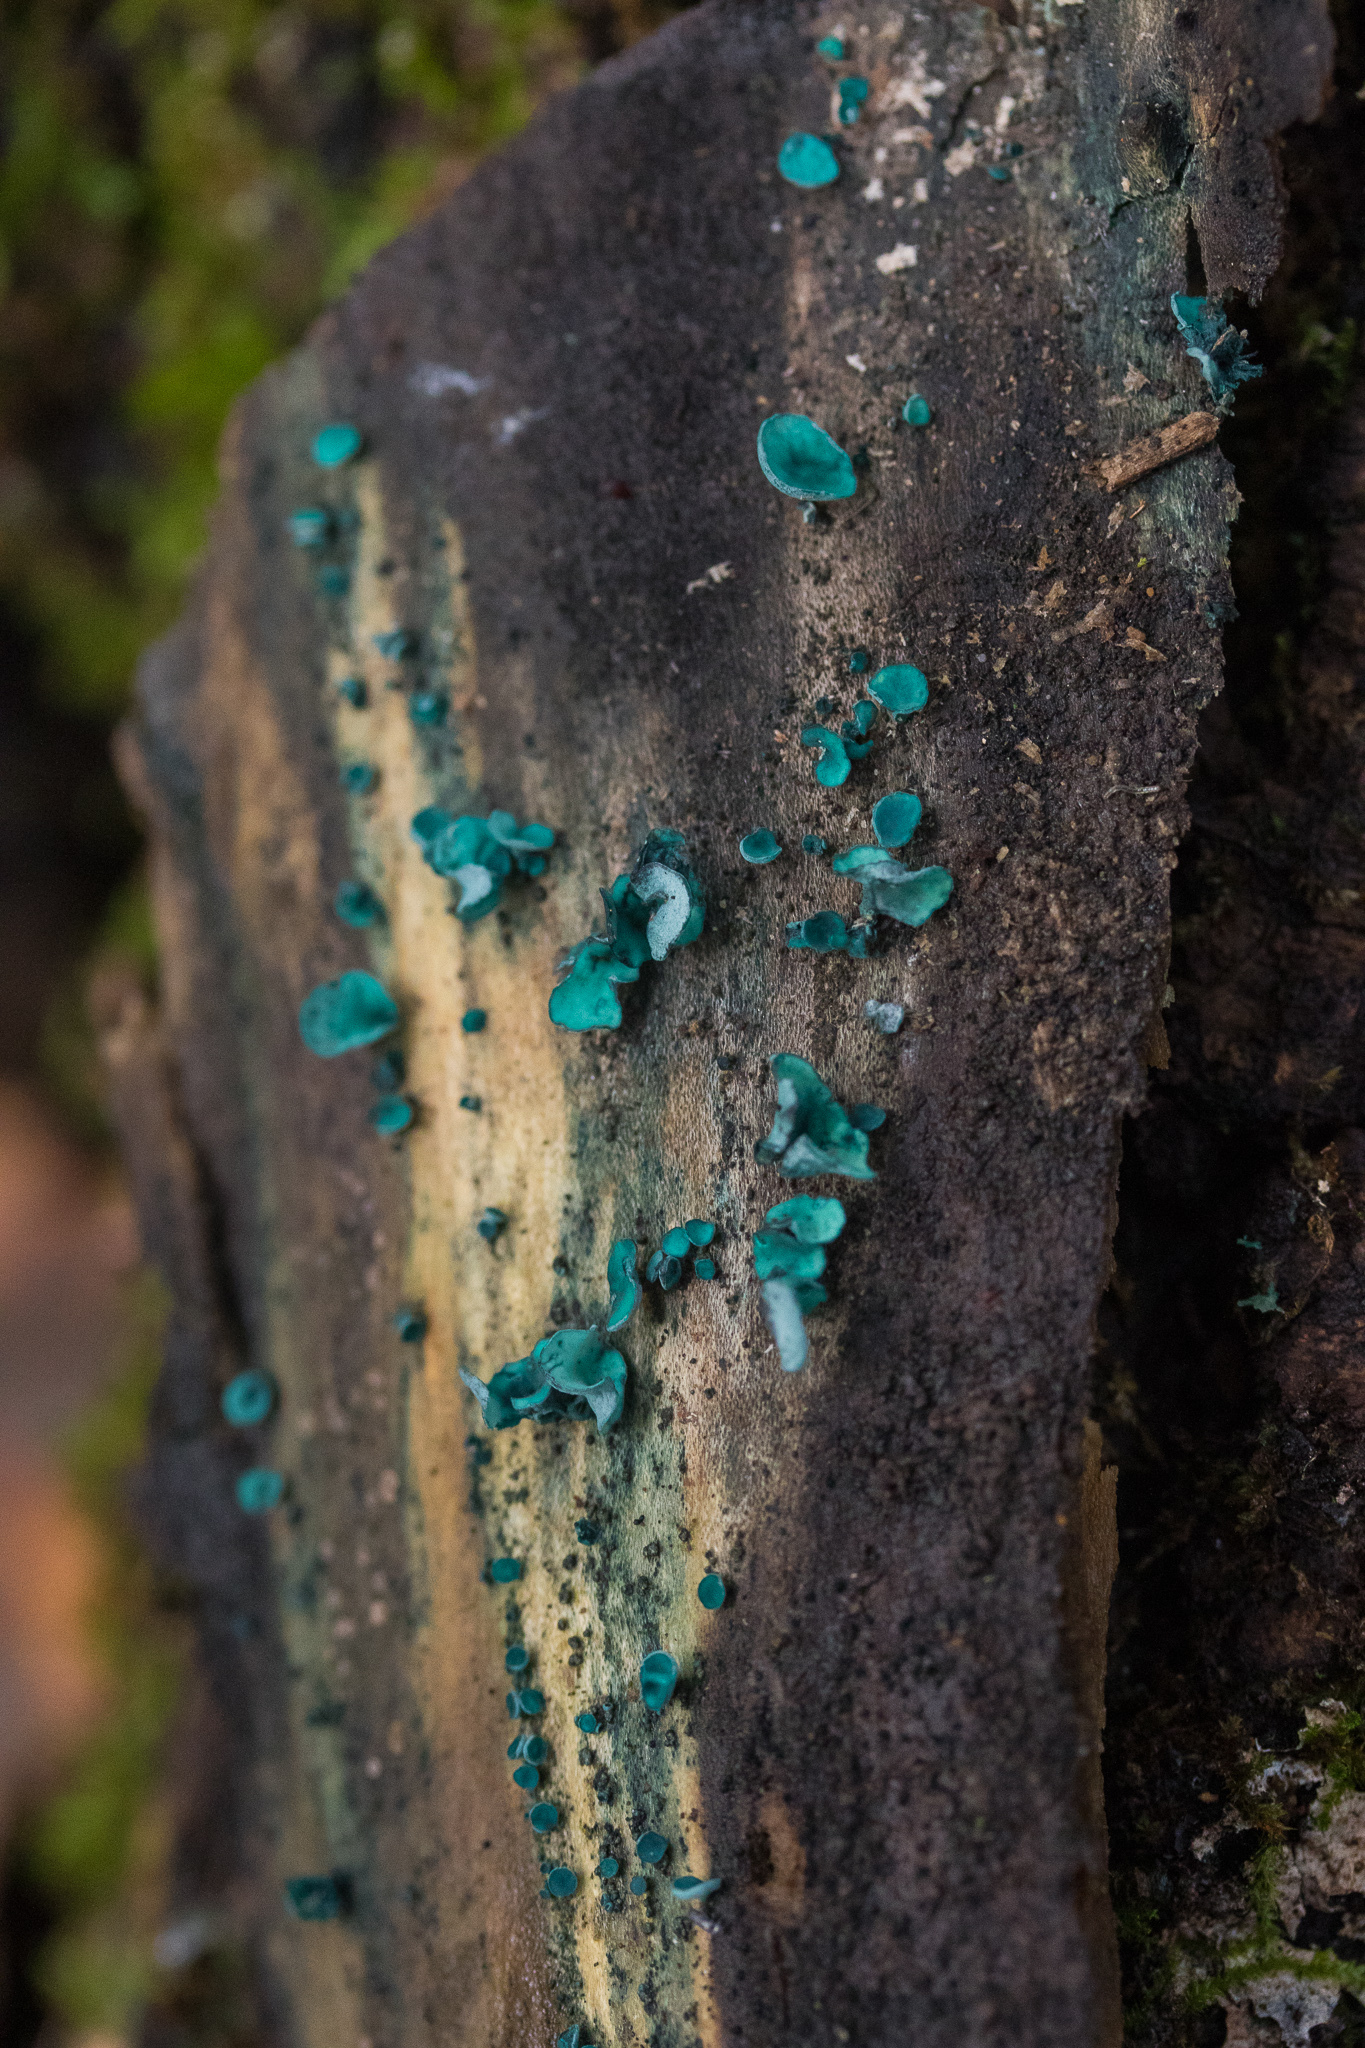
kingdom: Fungi
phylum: Ascomycota
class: Leotiomycetes
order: Helotiales
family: Chlorociboriaceae
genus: Chlorociboria
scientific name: Chlorociboria aeruginascens
